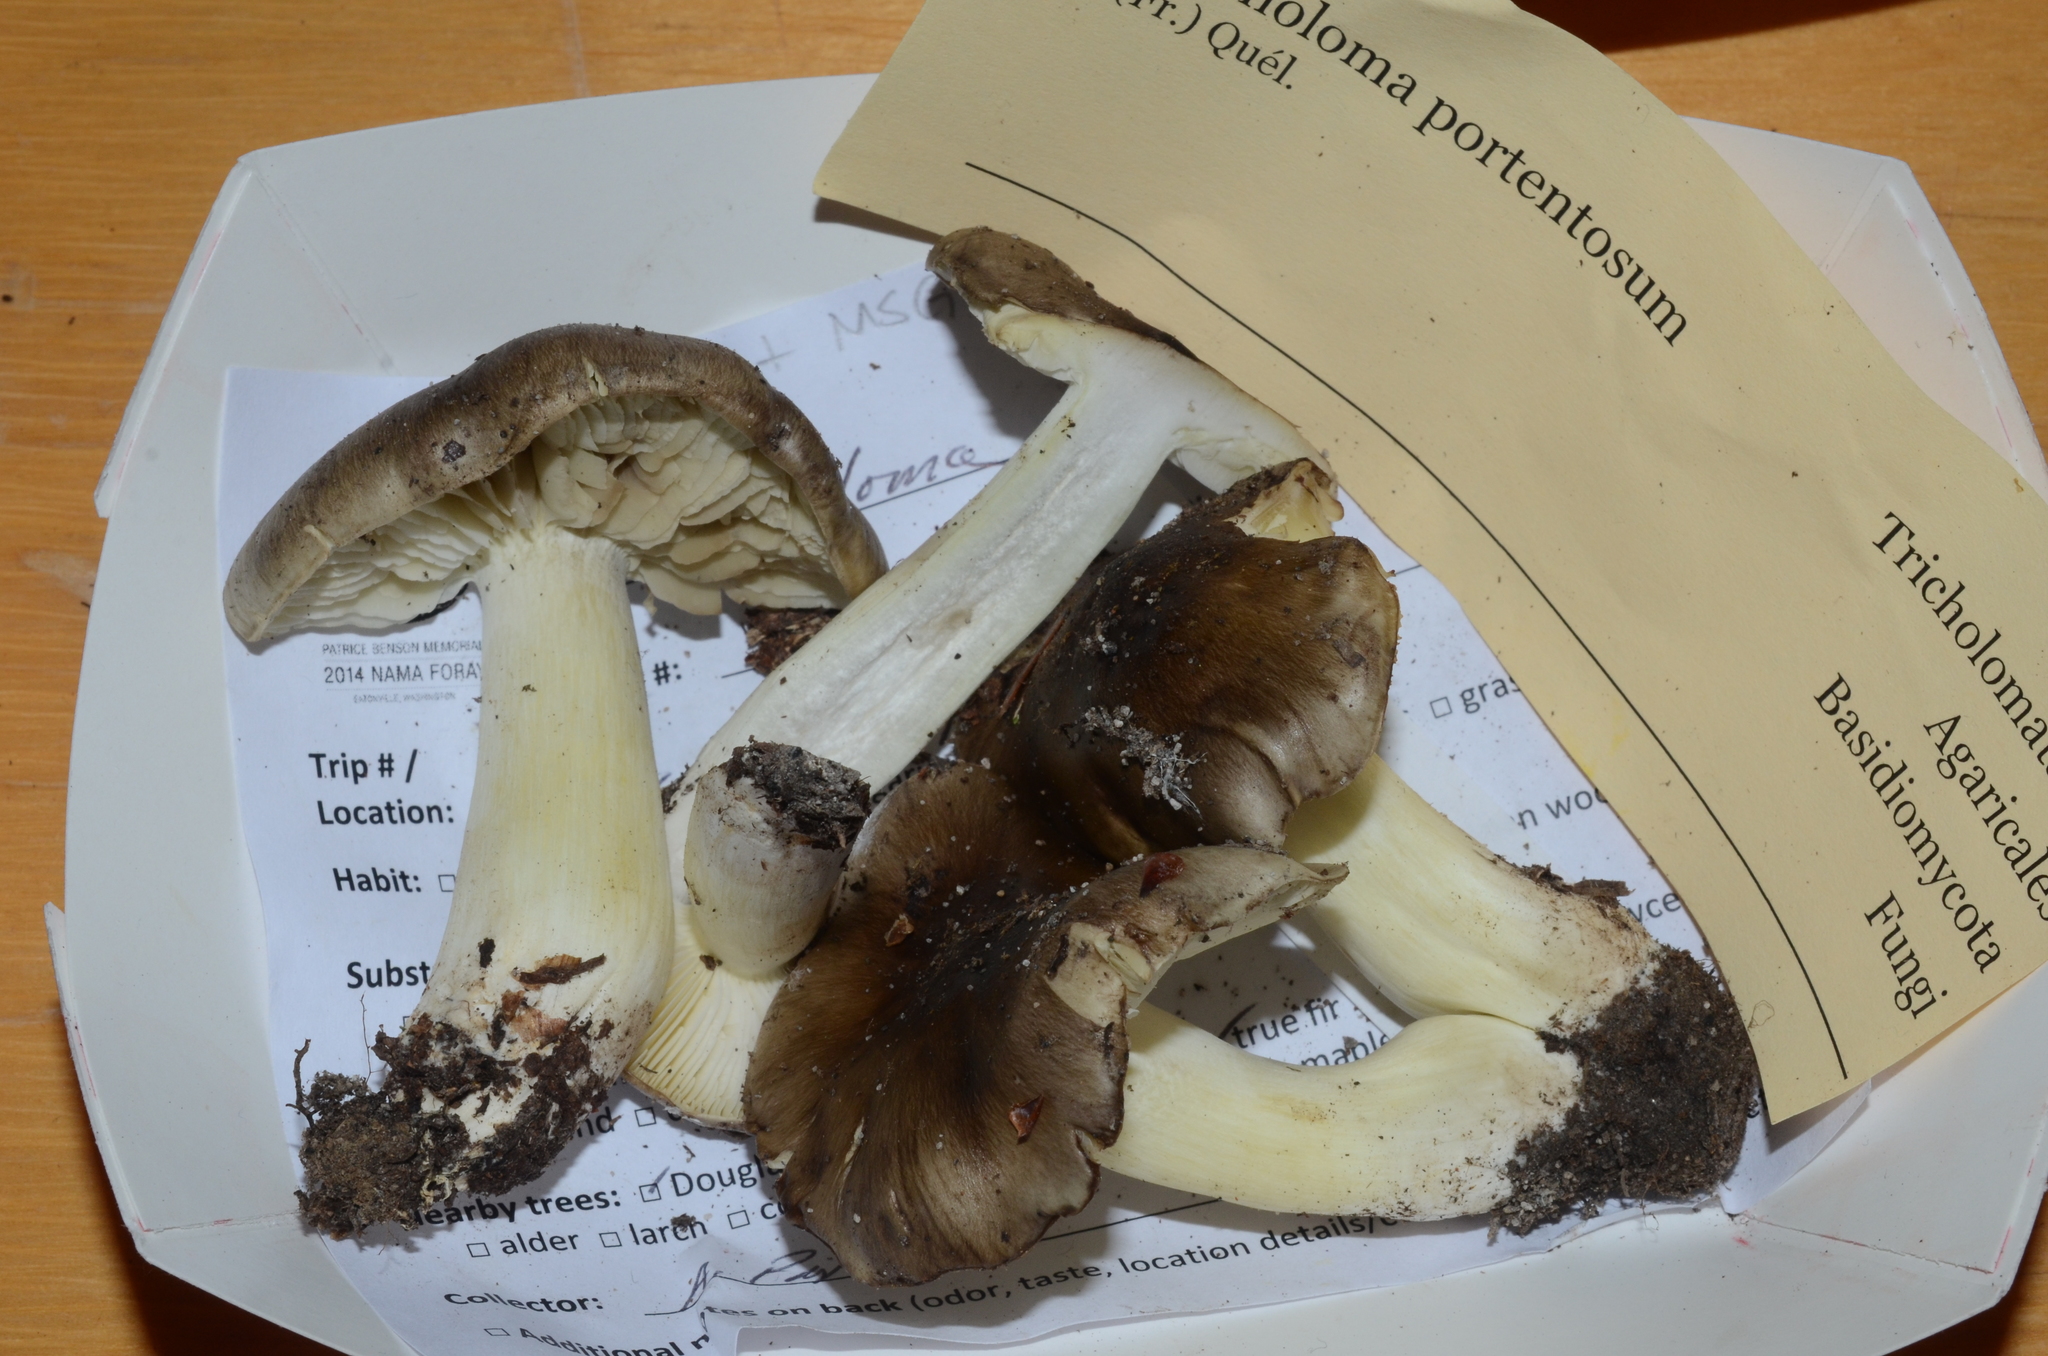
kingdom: Fungi
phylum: Basidiomycota
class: Agaricomycetes
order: Agaricales
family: Tricholomataceae
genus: Tricholoma
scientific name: Tricholoma portentosum
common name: Coalman
